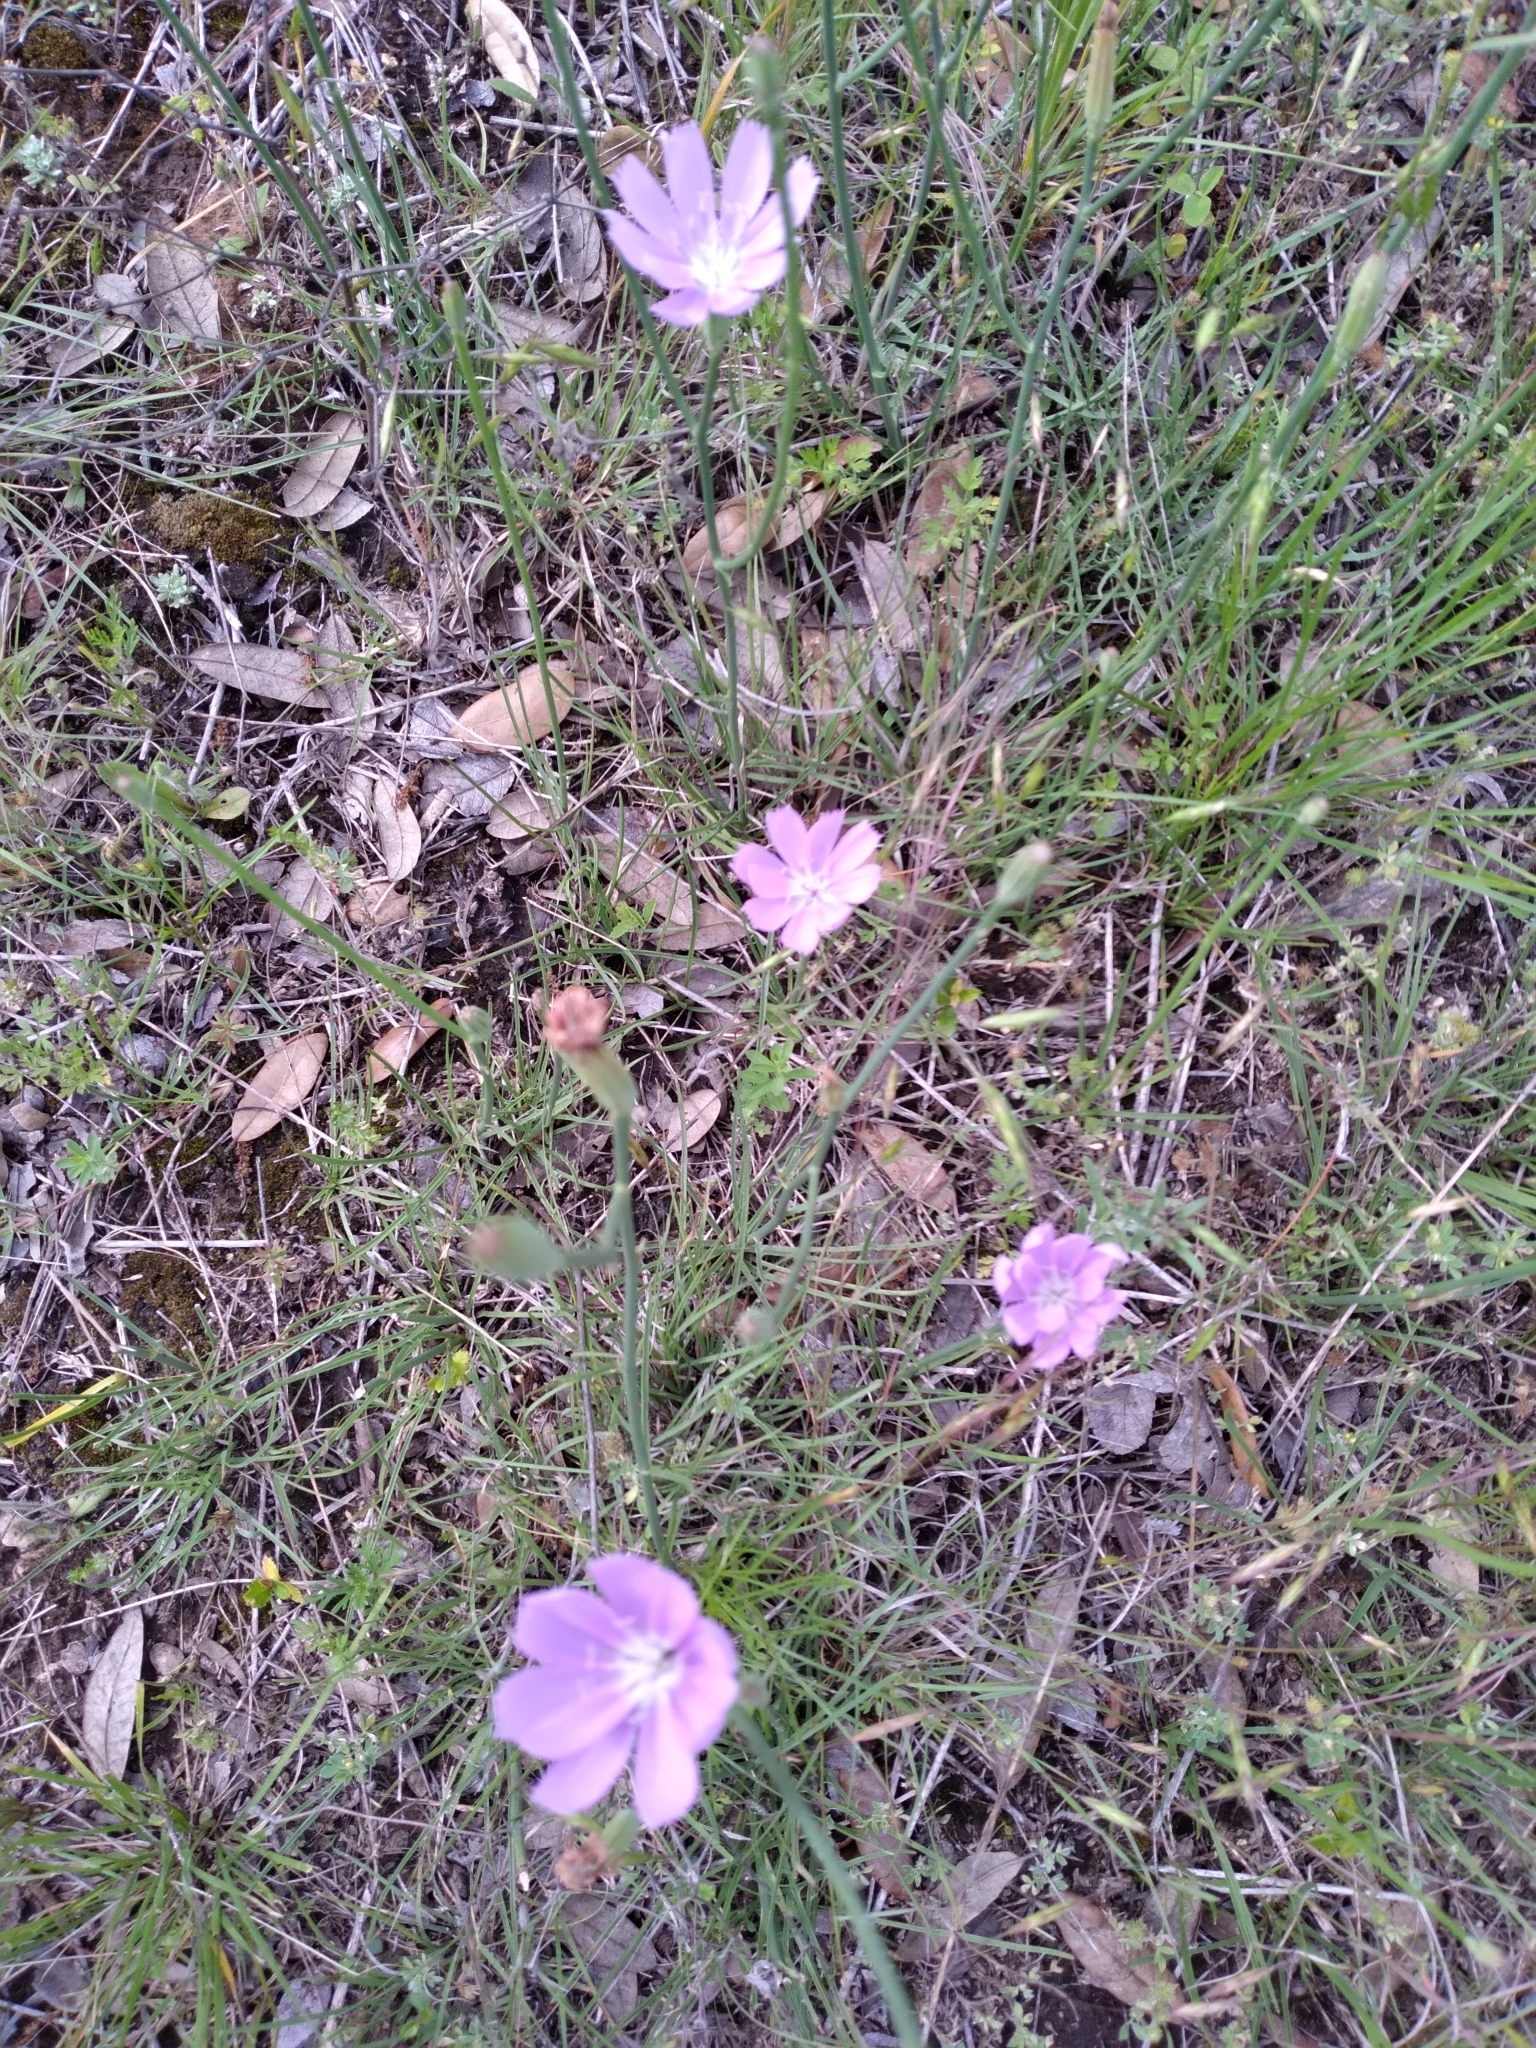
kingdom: Plantae
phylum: Tracheophyta
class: Magnoliopsida
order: Asterales
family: Asteraceae
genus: Lygodesmia
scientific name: Lygodesmia texana
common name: Texas skeleton-plant
